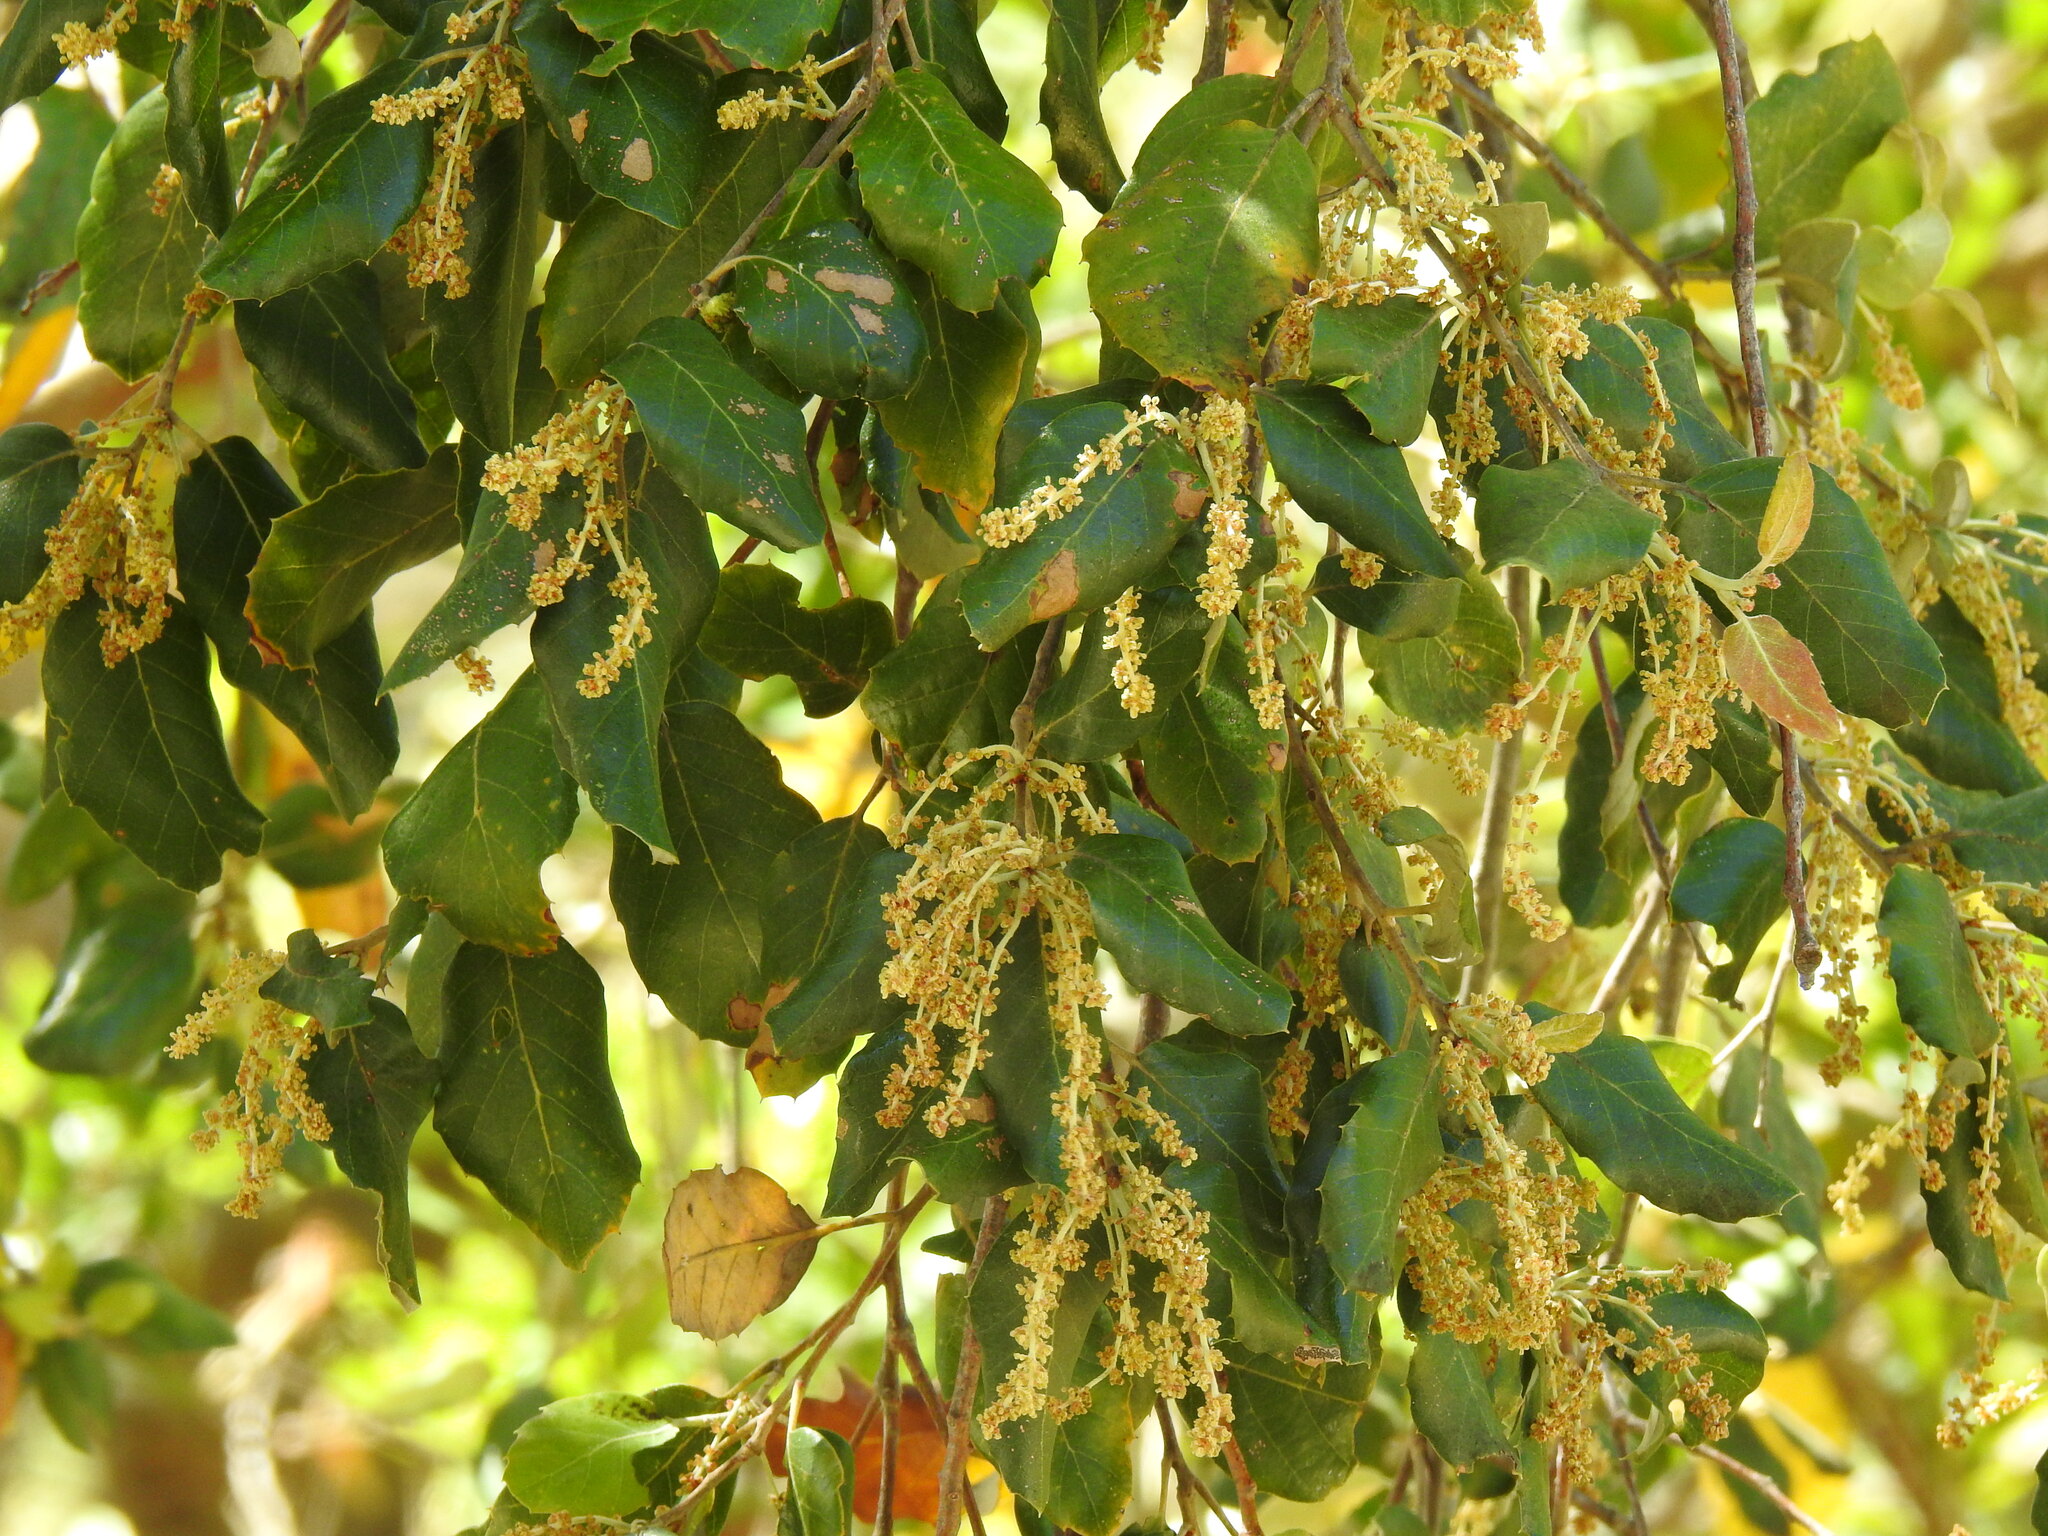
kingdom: Plantae
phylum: Tracheophyta
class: Magnoliopsida
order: Fagales
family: Fagaceae
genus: Quercus
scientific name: Quercus suber
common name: Cork oak
